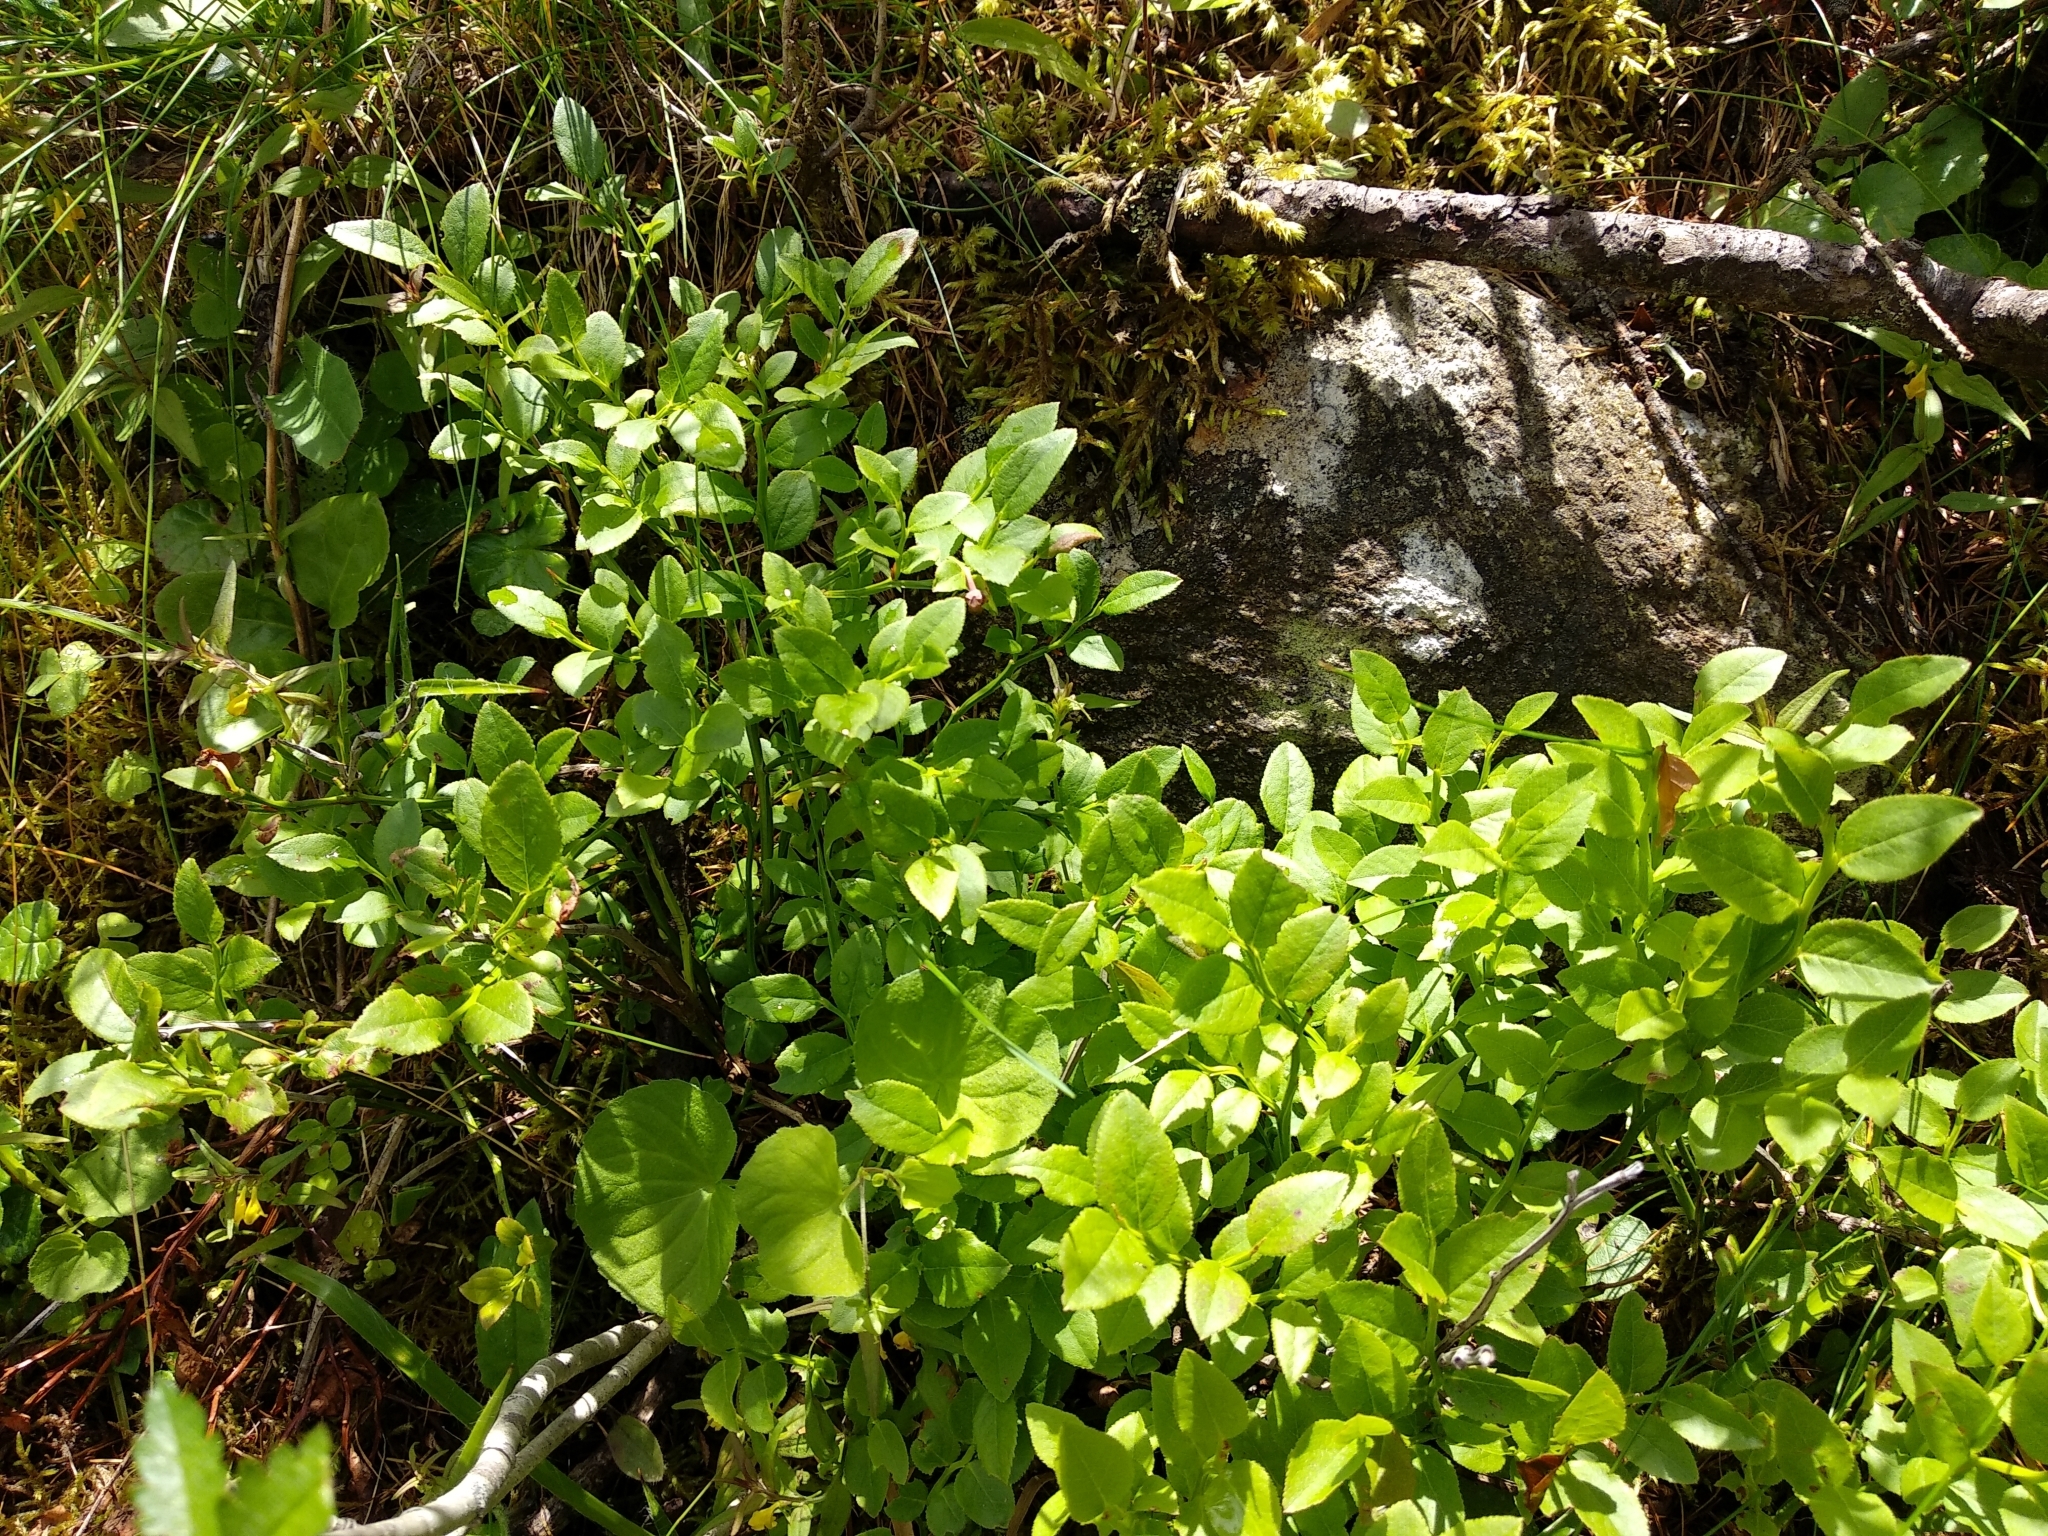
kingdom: Plantae
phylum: Tracheophyta
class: Magnoliopsida
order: Ericales
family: Ericaceae
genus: Vaccinium
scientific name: Vaccinium myrtillus
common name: Bilberry
